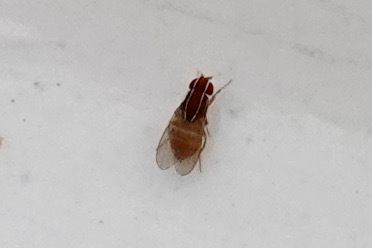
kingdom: Animalia
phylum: Arthropoda
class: Insecta
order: Diptera
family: Drosophilidae
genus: Zaprionus
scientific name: Zaprionus indianus
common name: African fig fly
